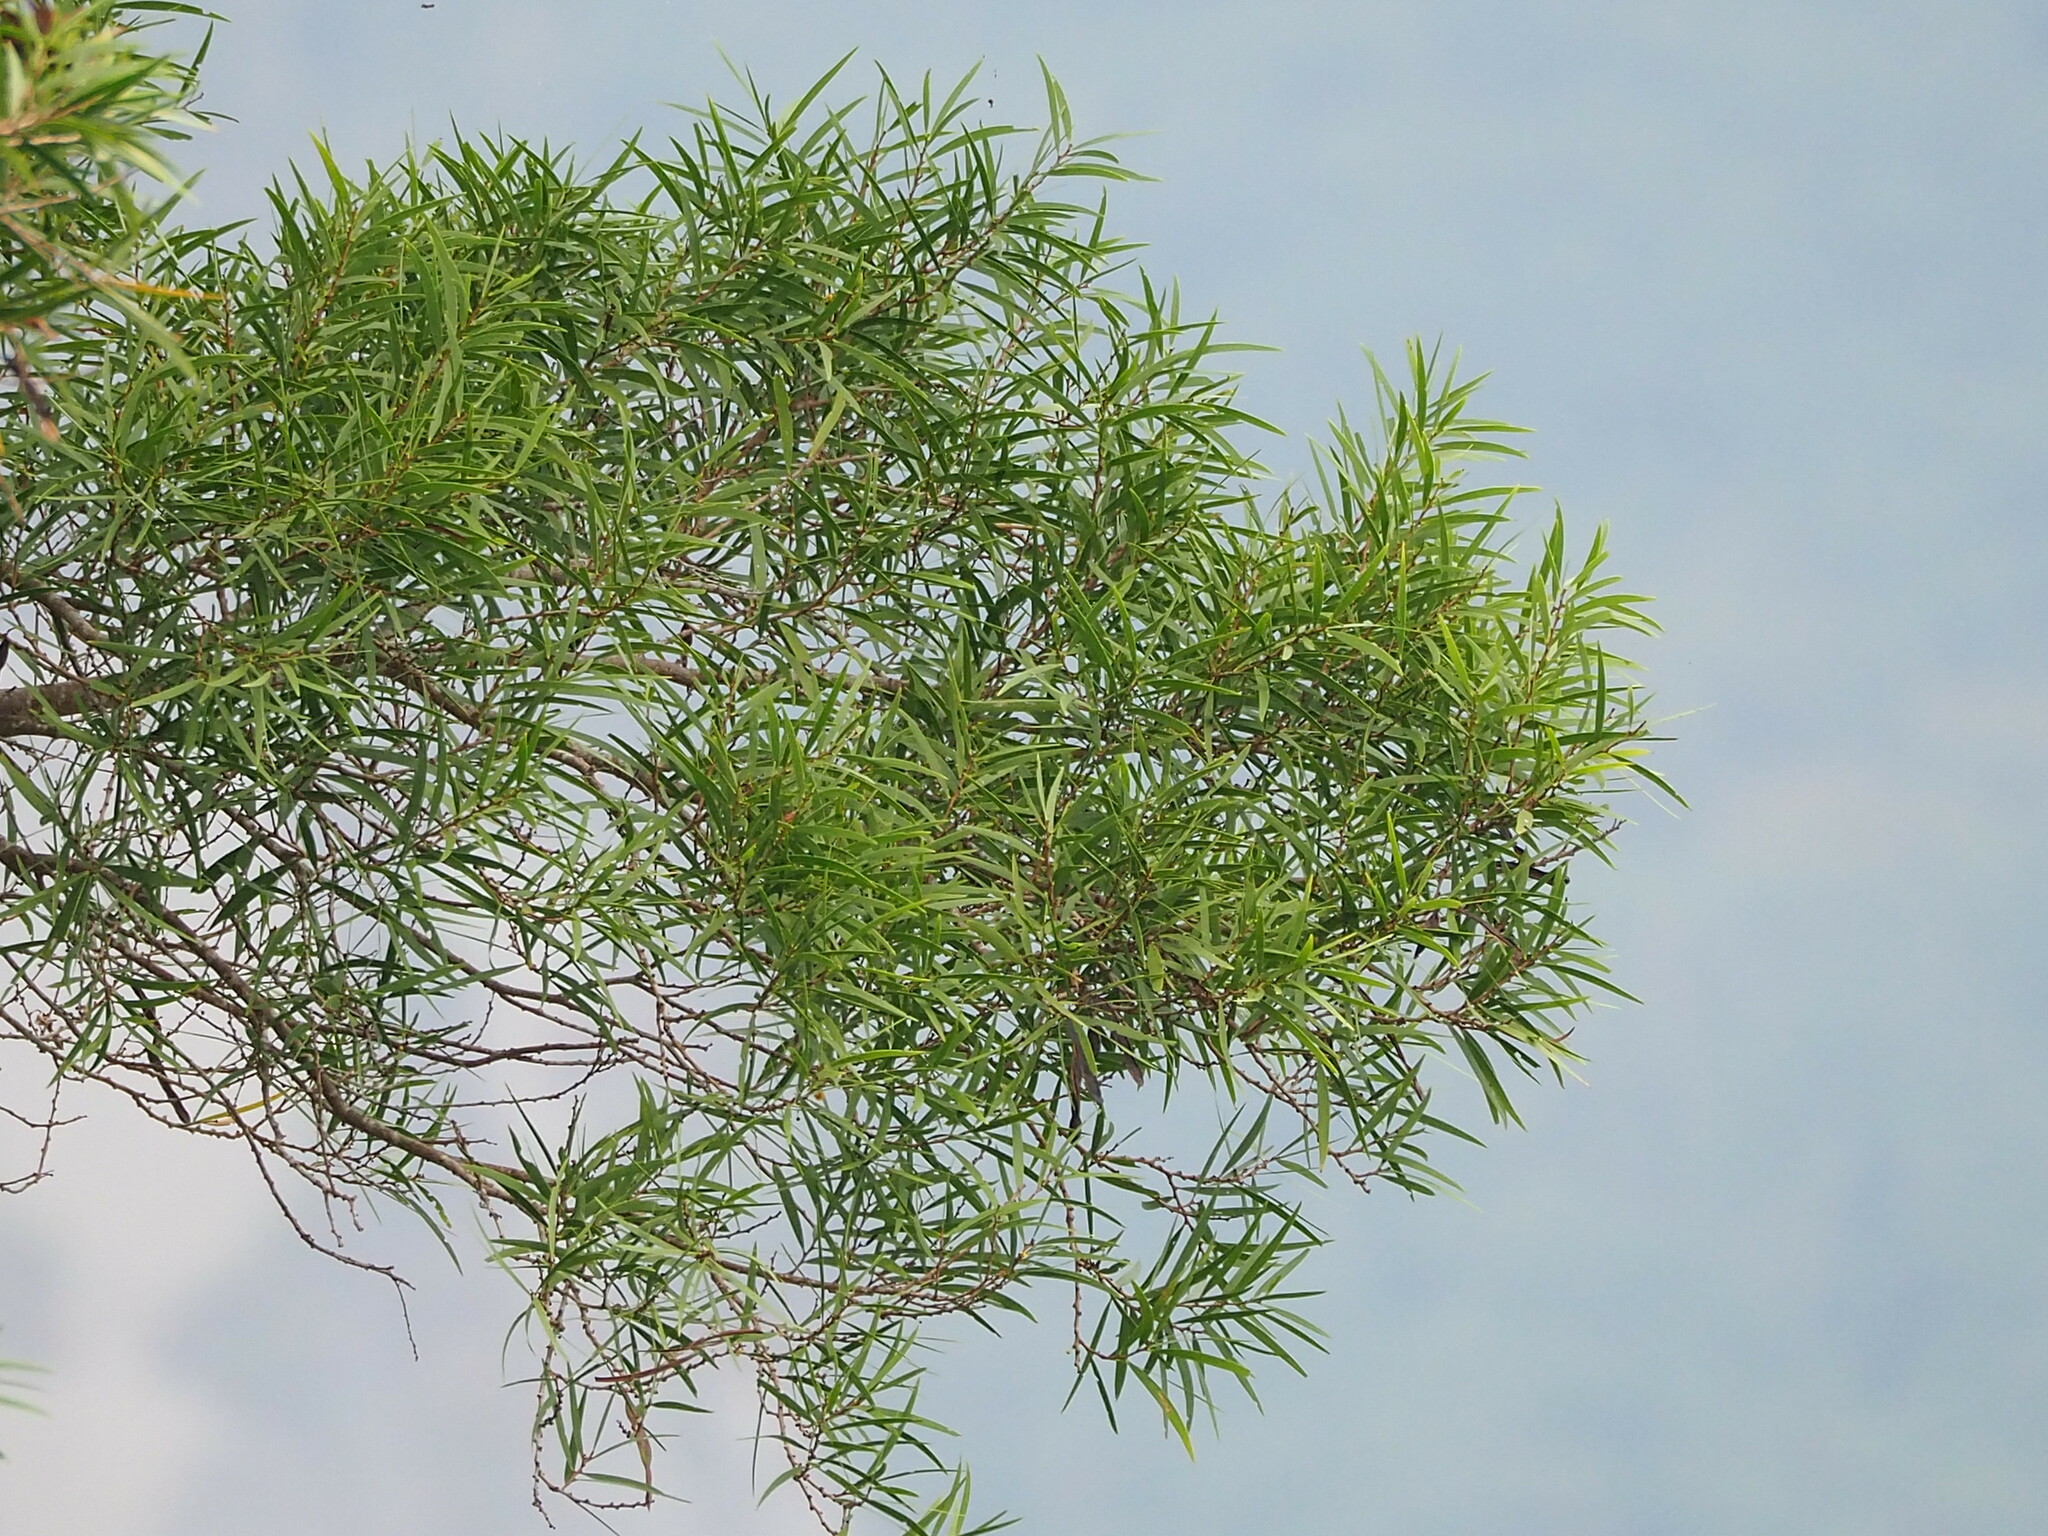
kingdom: Plantae
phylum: Tracheophyta
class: Magnoliopsida
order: Fabales
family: Fabaceae
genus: Acacia
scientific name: Acacia confusa
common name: Formosan koa
